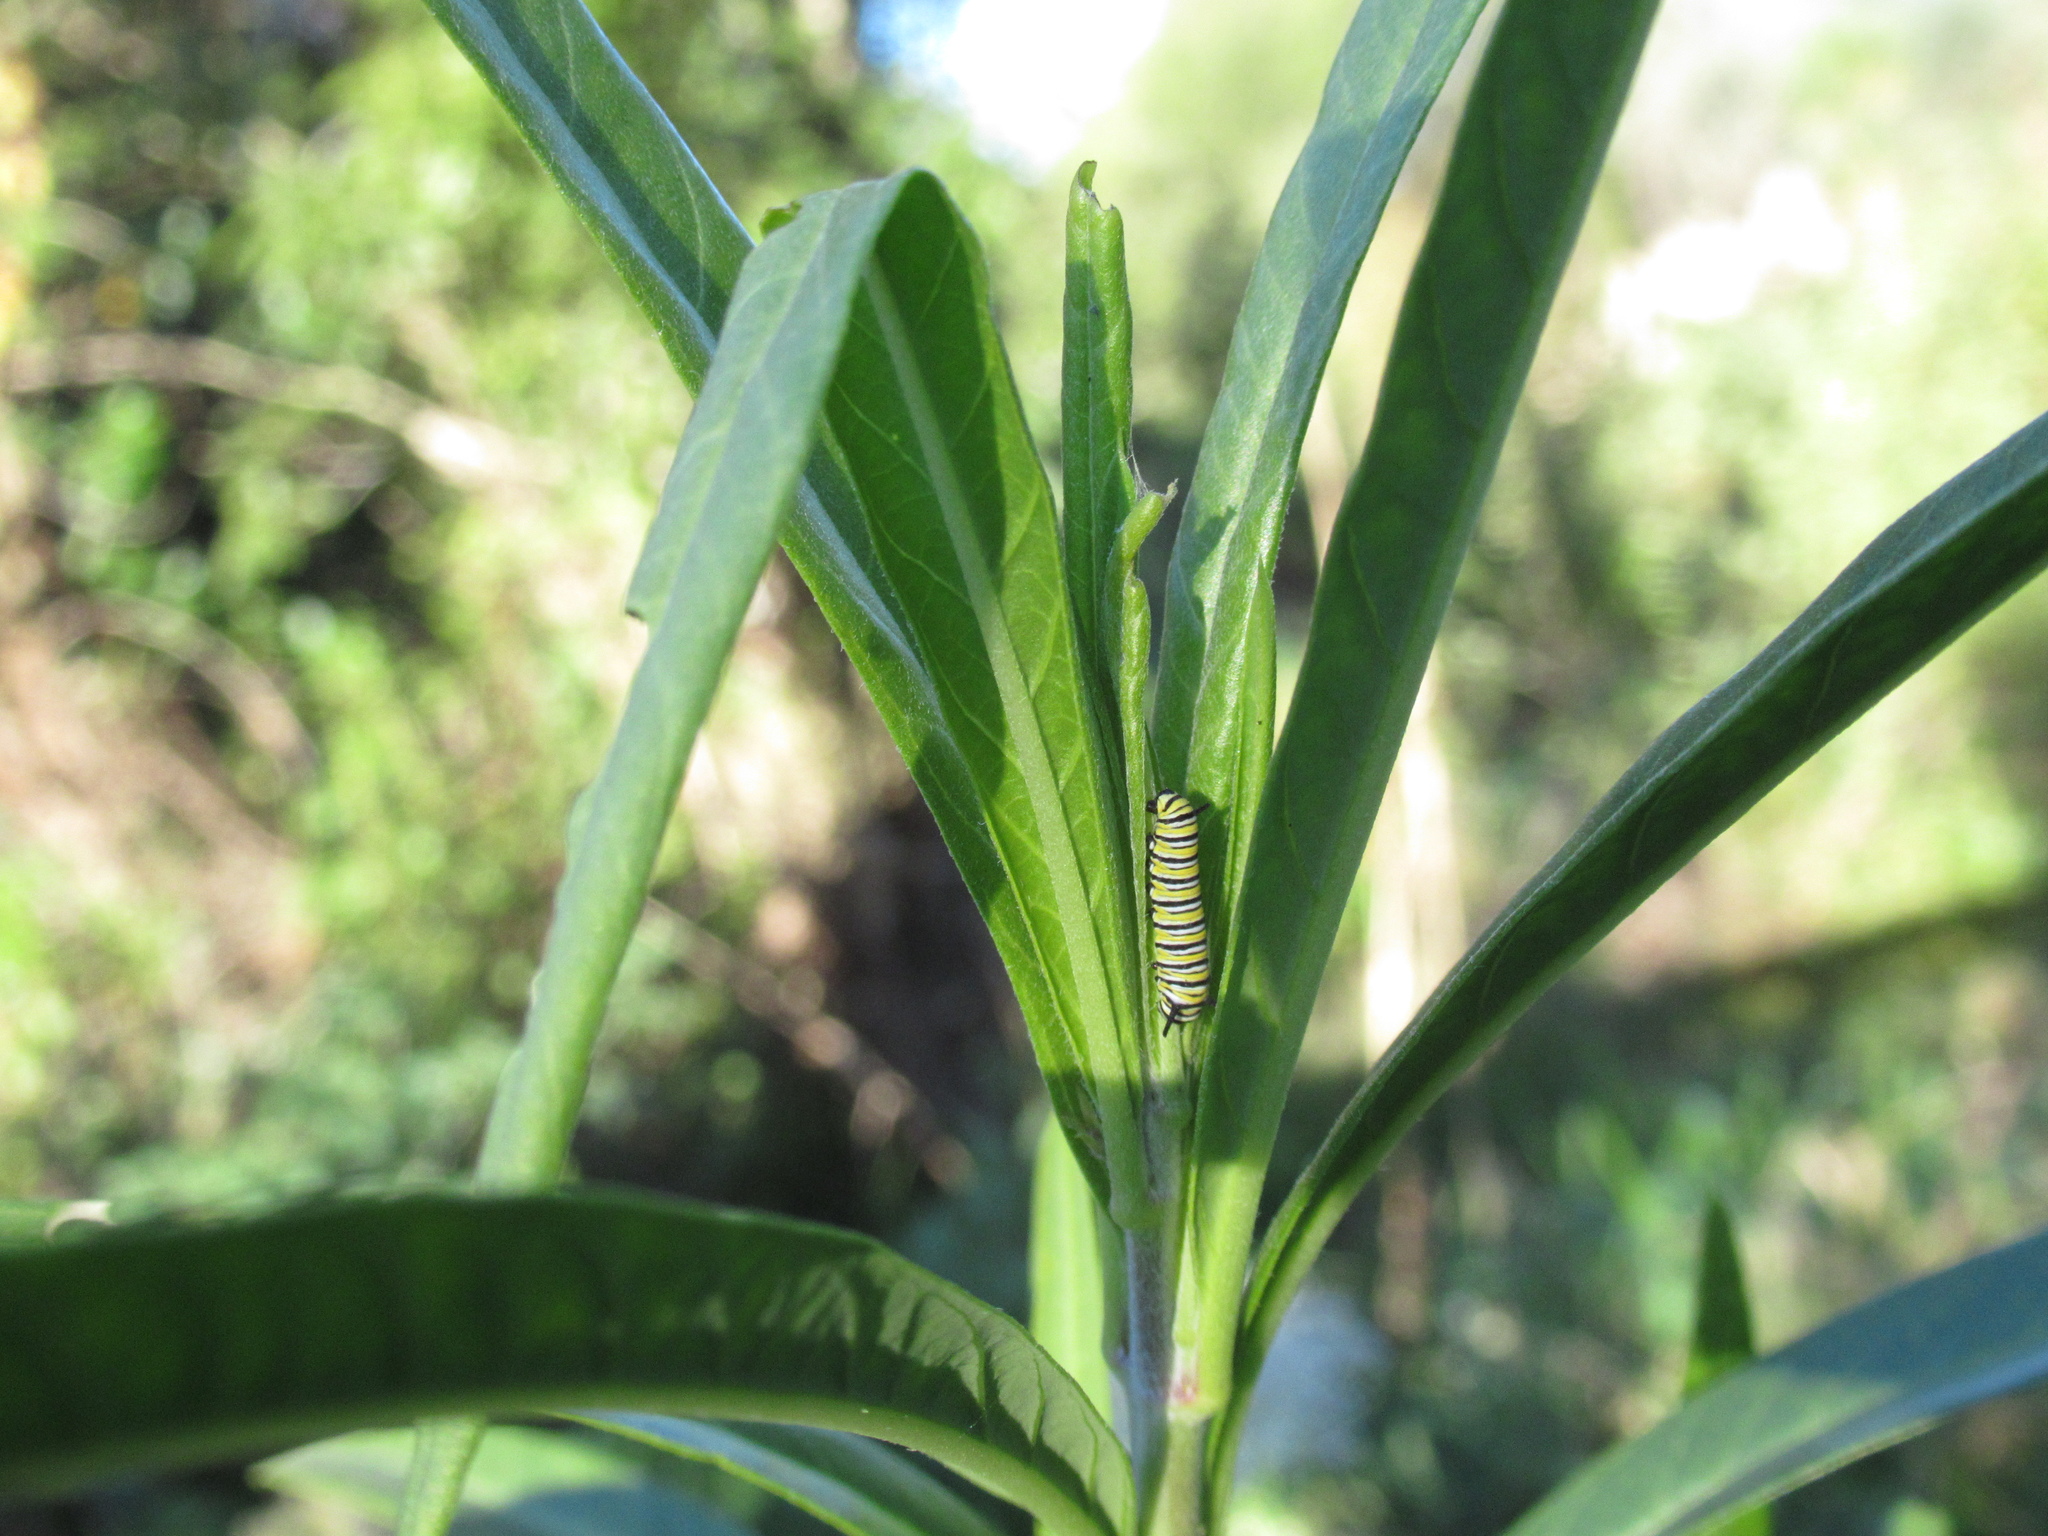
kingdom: Animalia
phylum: Arthropoda
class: Insecta
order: Lepidoptera
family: Nymphalidae
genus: Danaus
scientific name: Danaus plexippus
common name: Monarch
